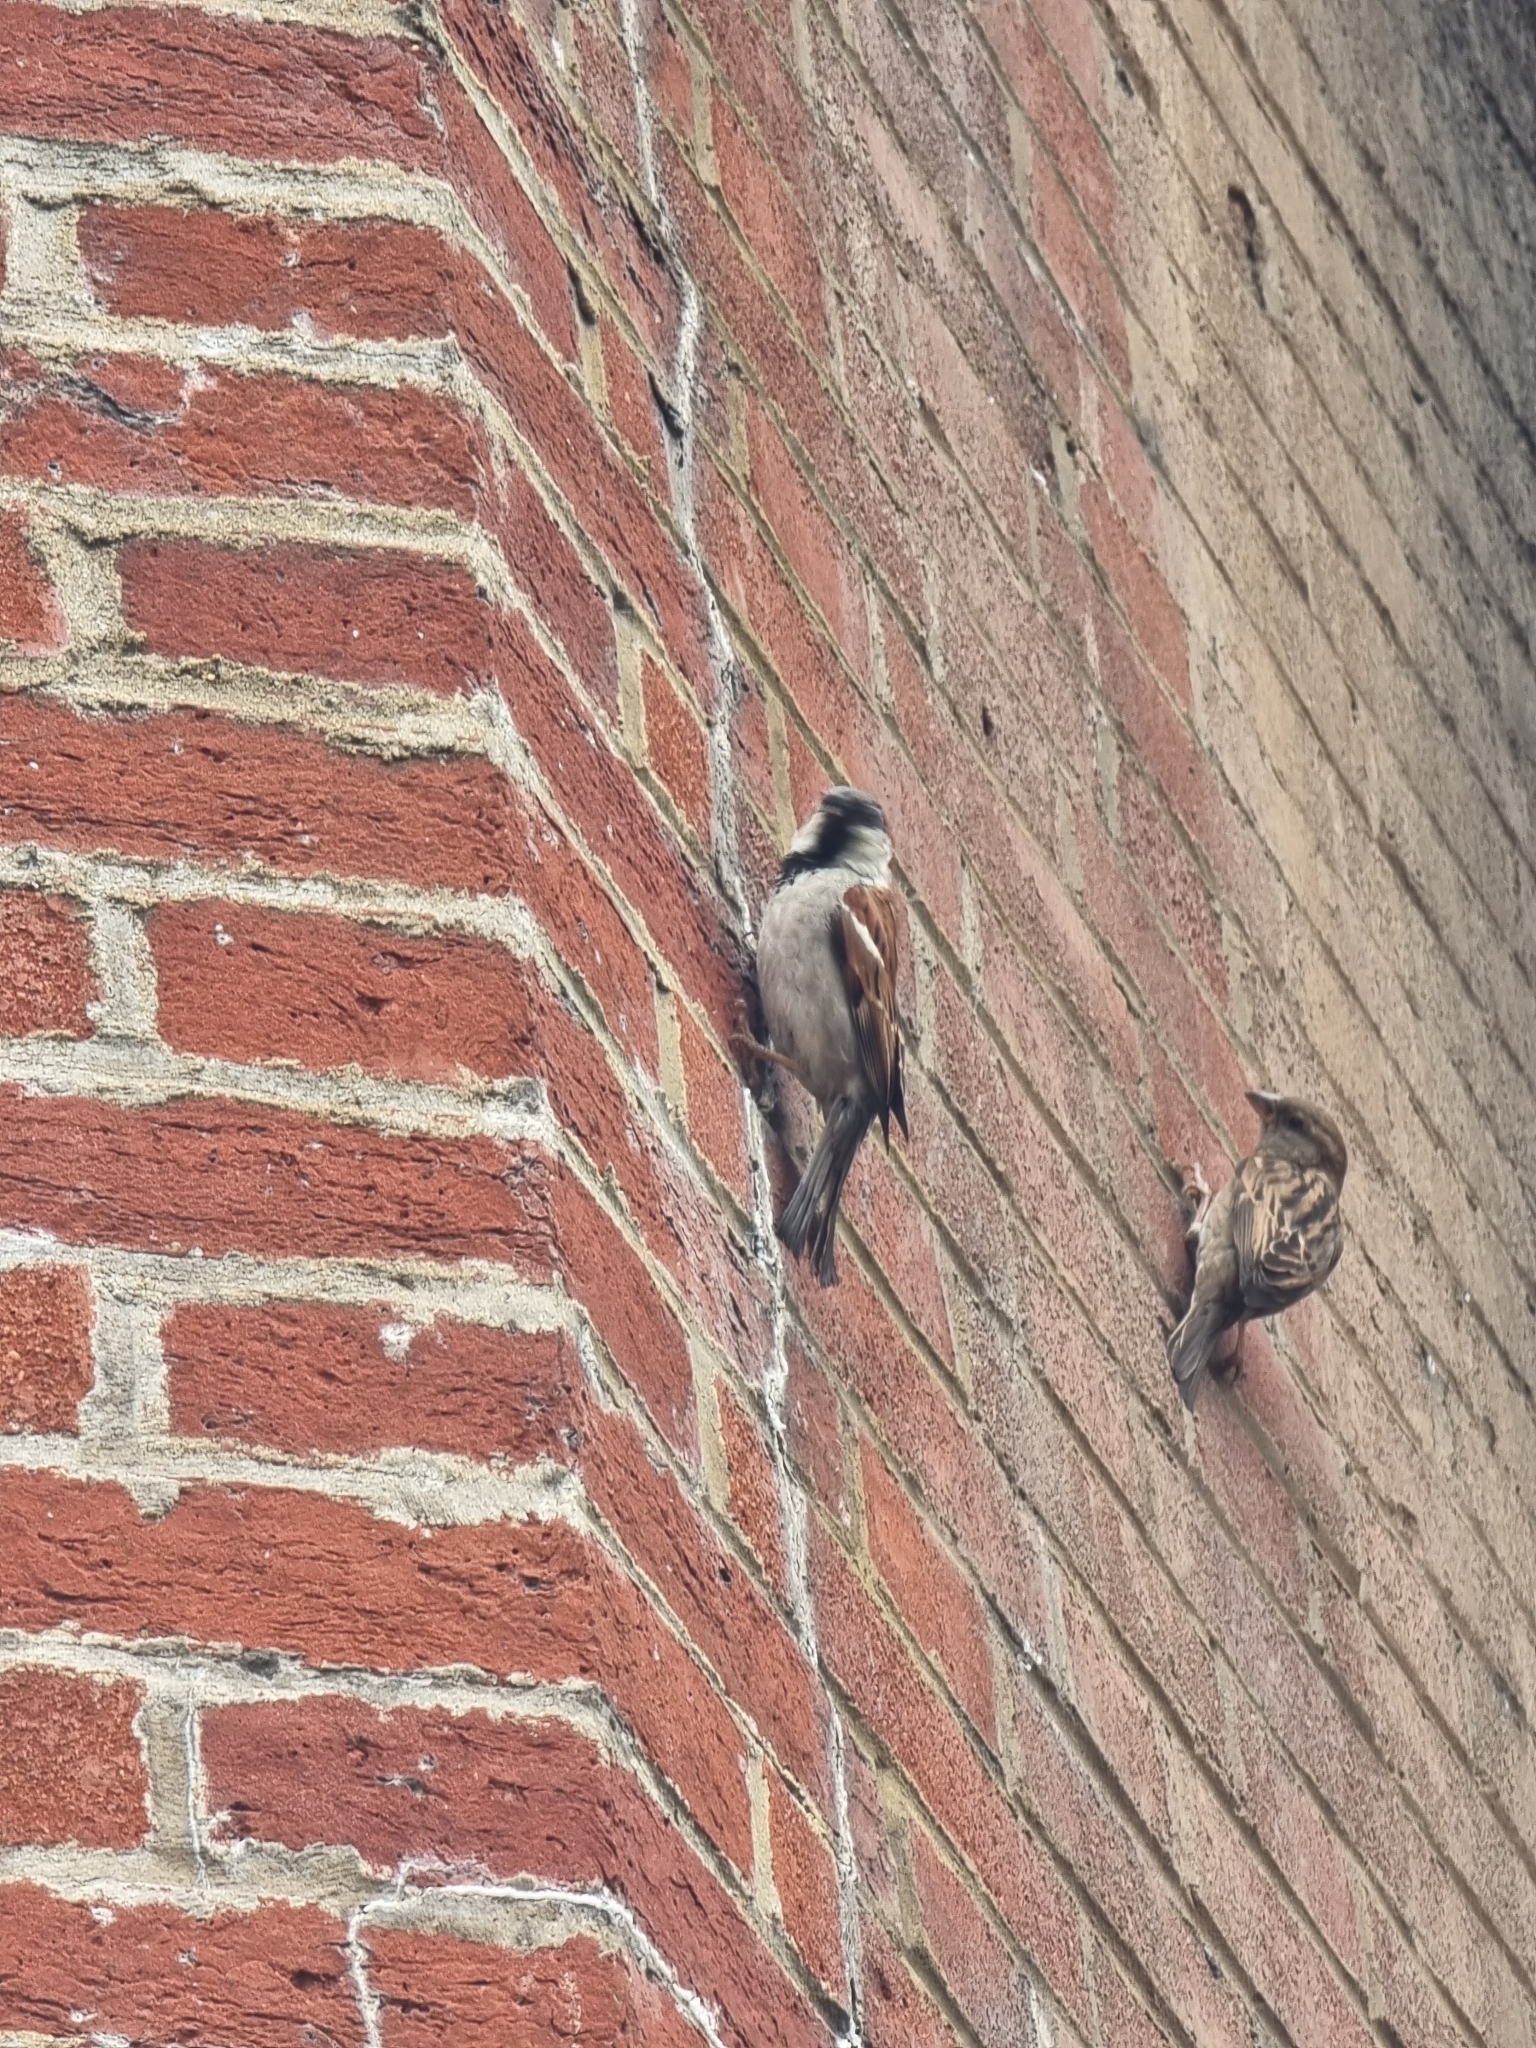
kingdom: Animalia
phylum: Chordata
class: Aves
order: Passeriformes
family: Passeridae
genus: Passer
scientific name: Passer domesticus
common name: House sparrow
